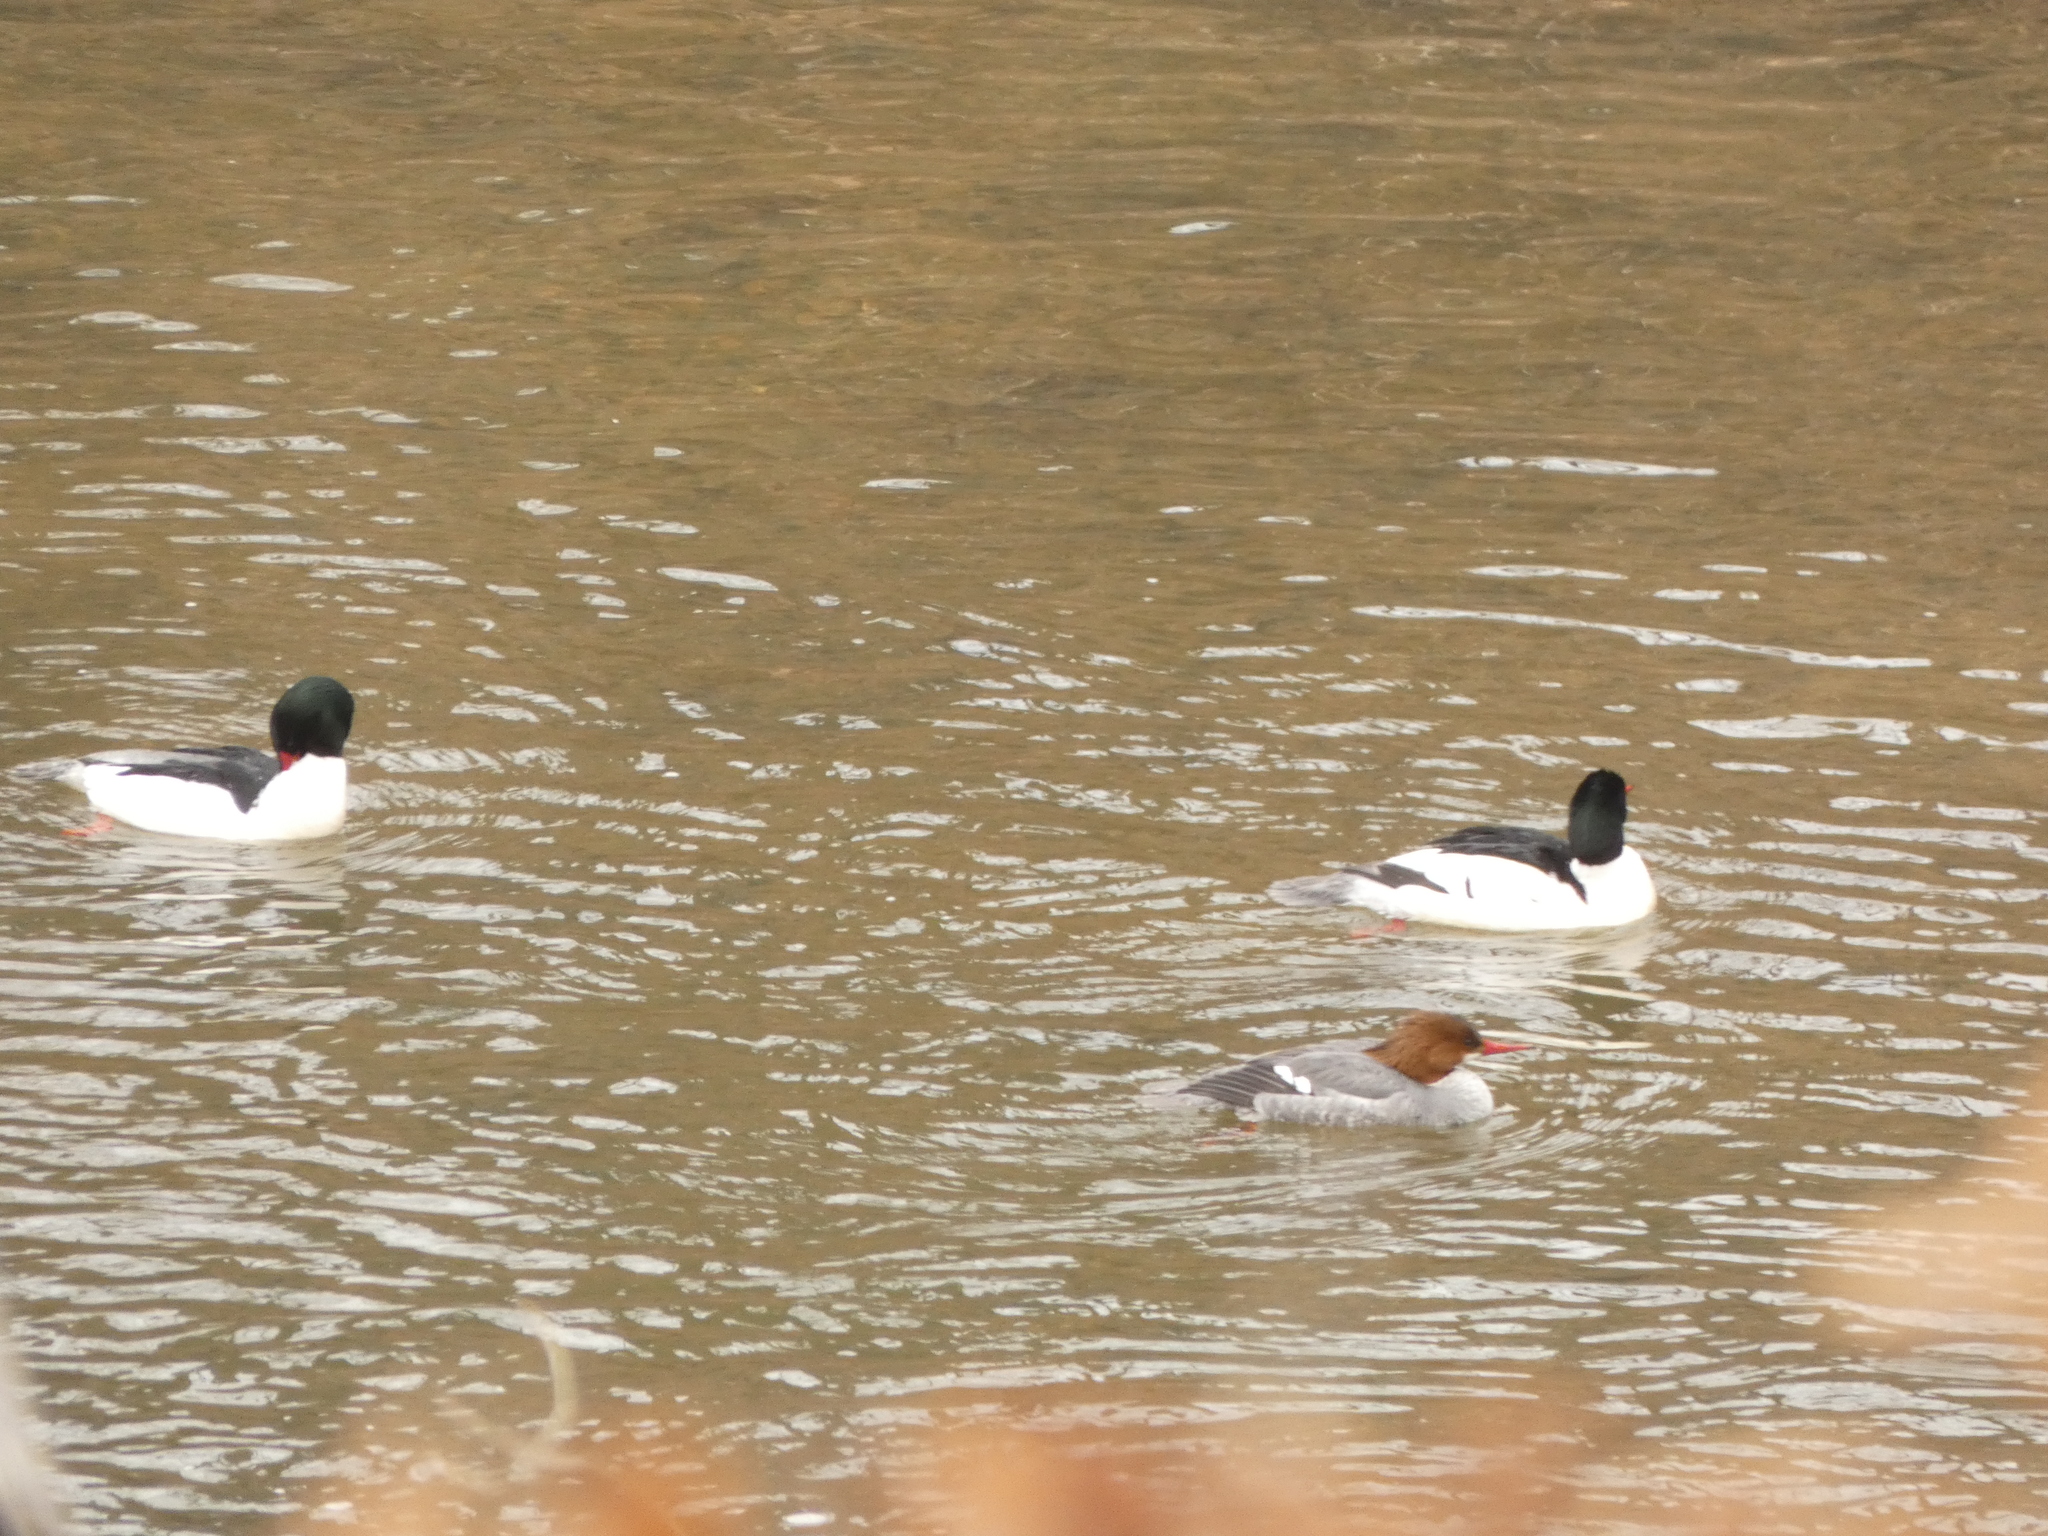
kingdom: Animalia
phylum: Chordata
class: Aves
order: Anseriformes
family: Anatidae
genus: Mergus
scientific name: Mergus merganser
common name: Common merganser
